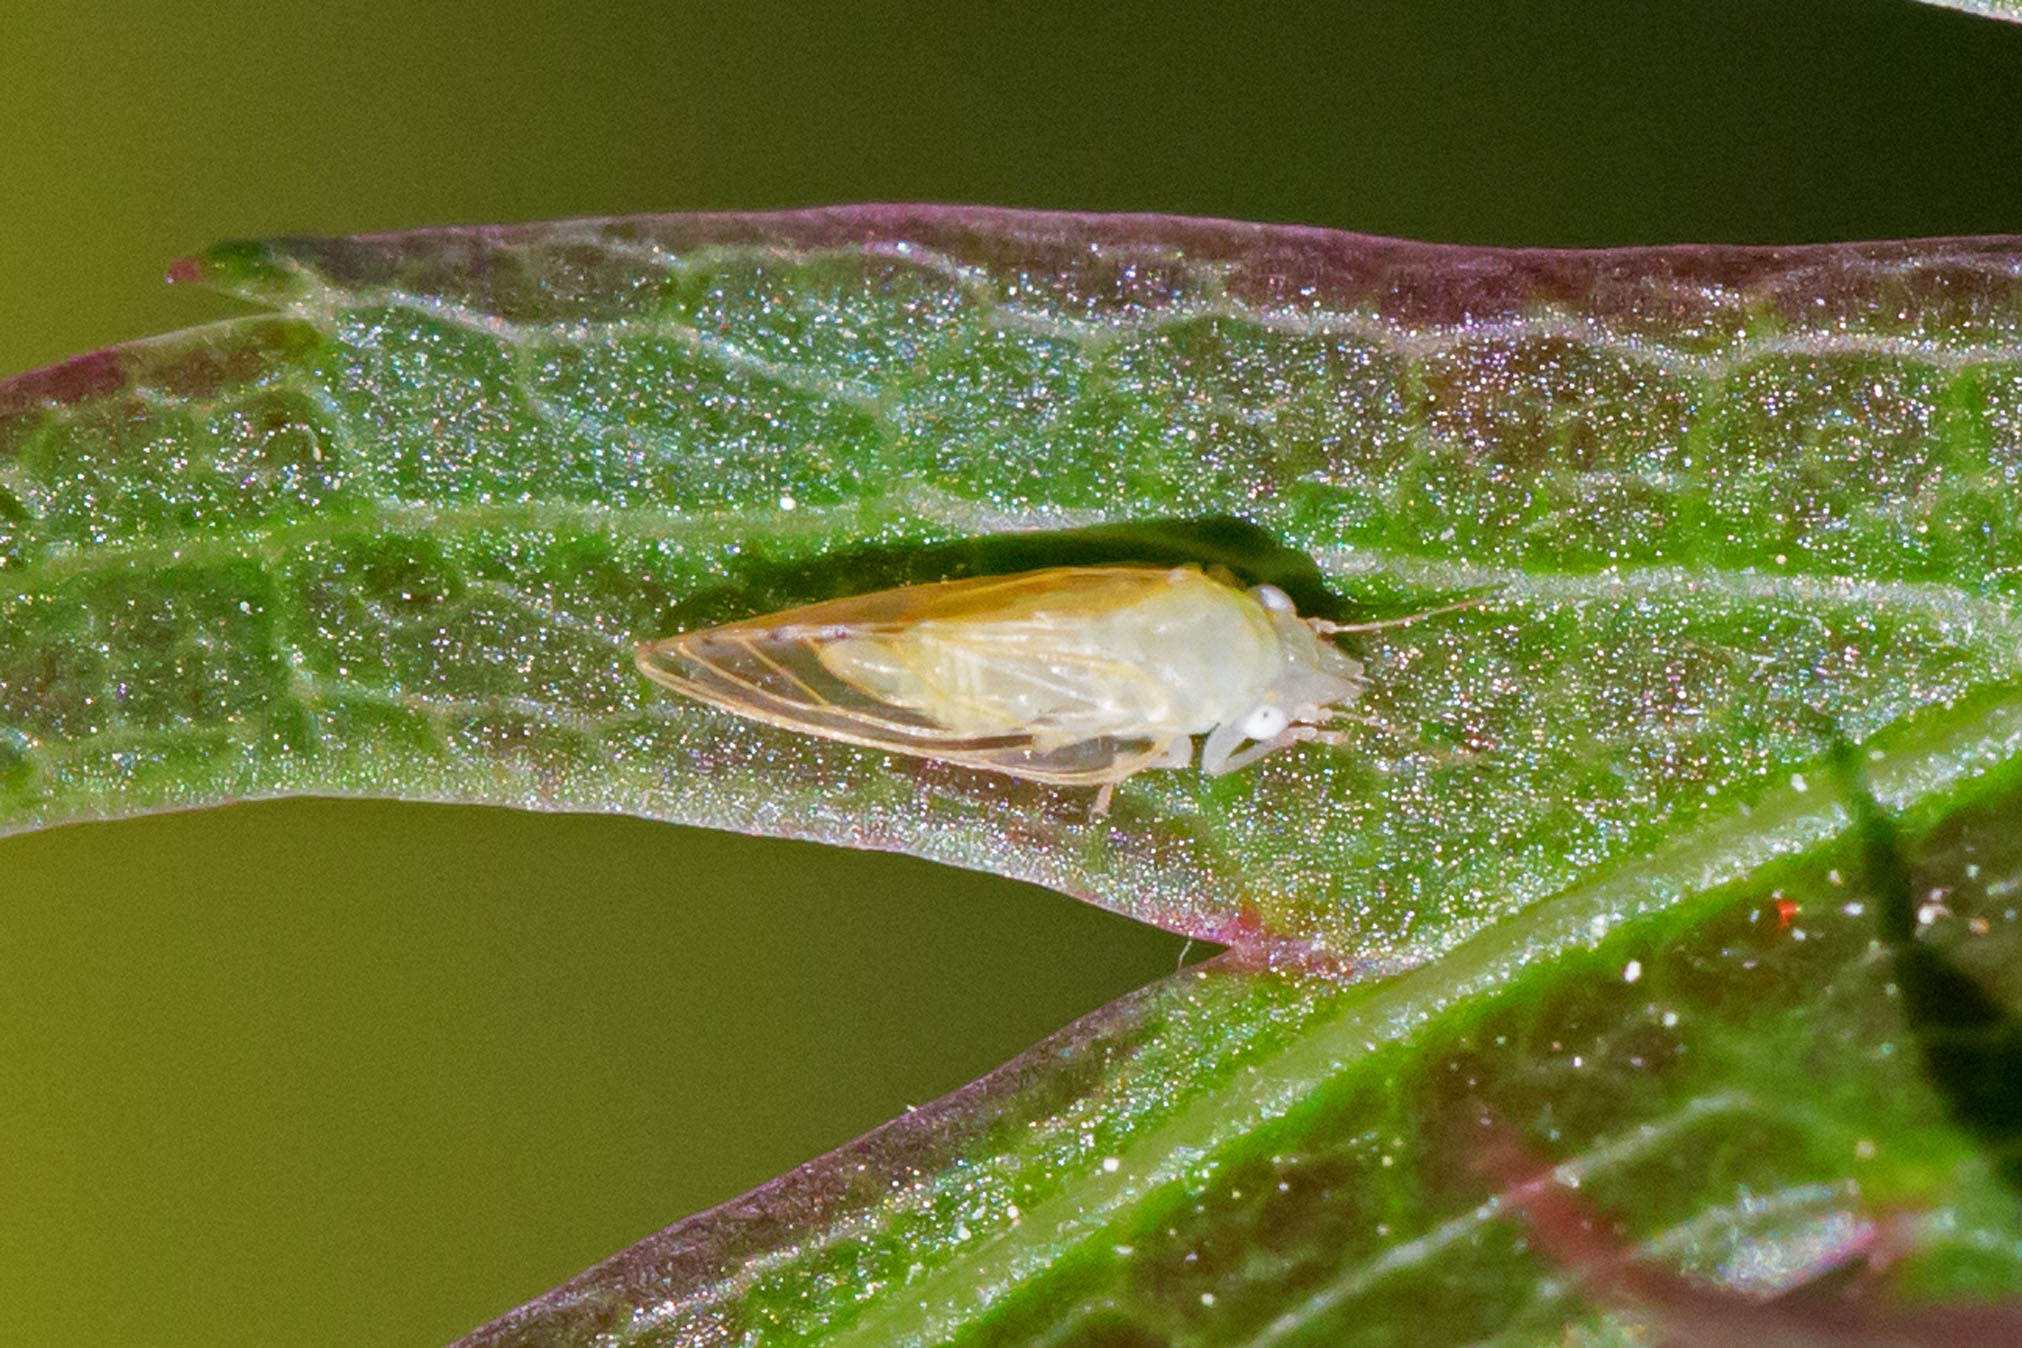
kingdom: Animalia
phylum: Arthropoda
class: Insecta
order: Hemiptera
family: Psyllidae
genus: Spanioneura
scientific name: Spanioneura fonscolombii
